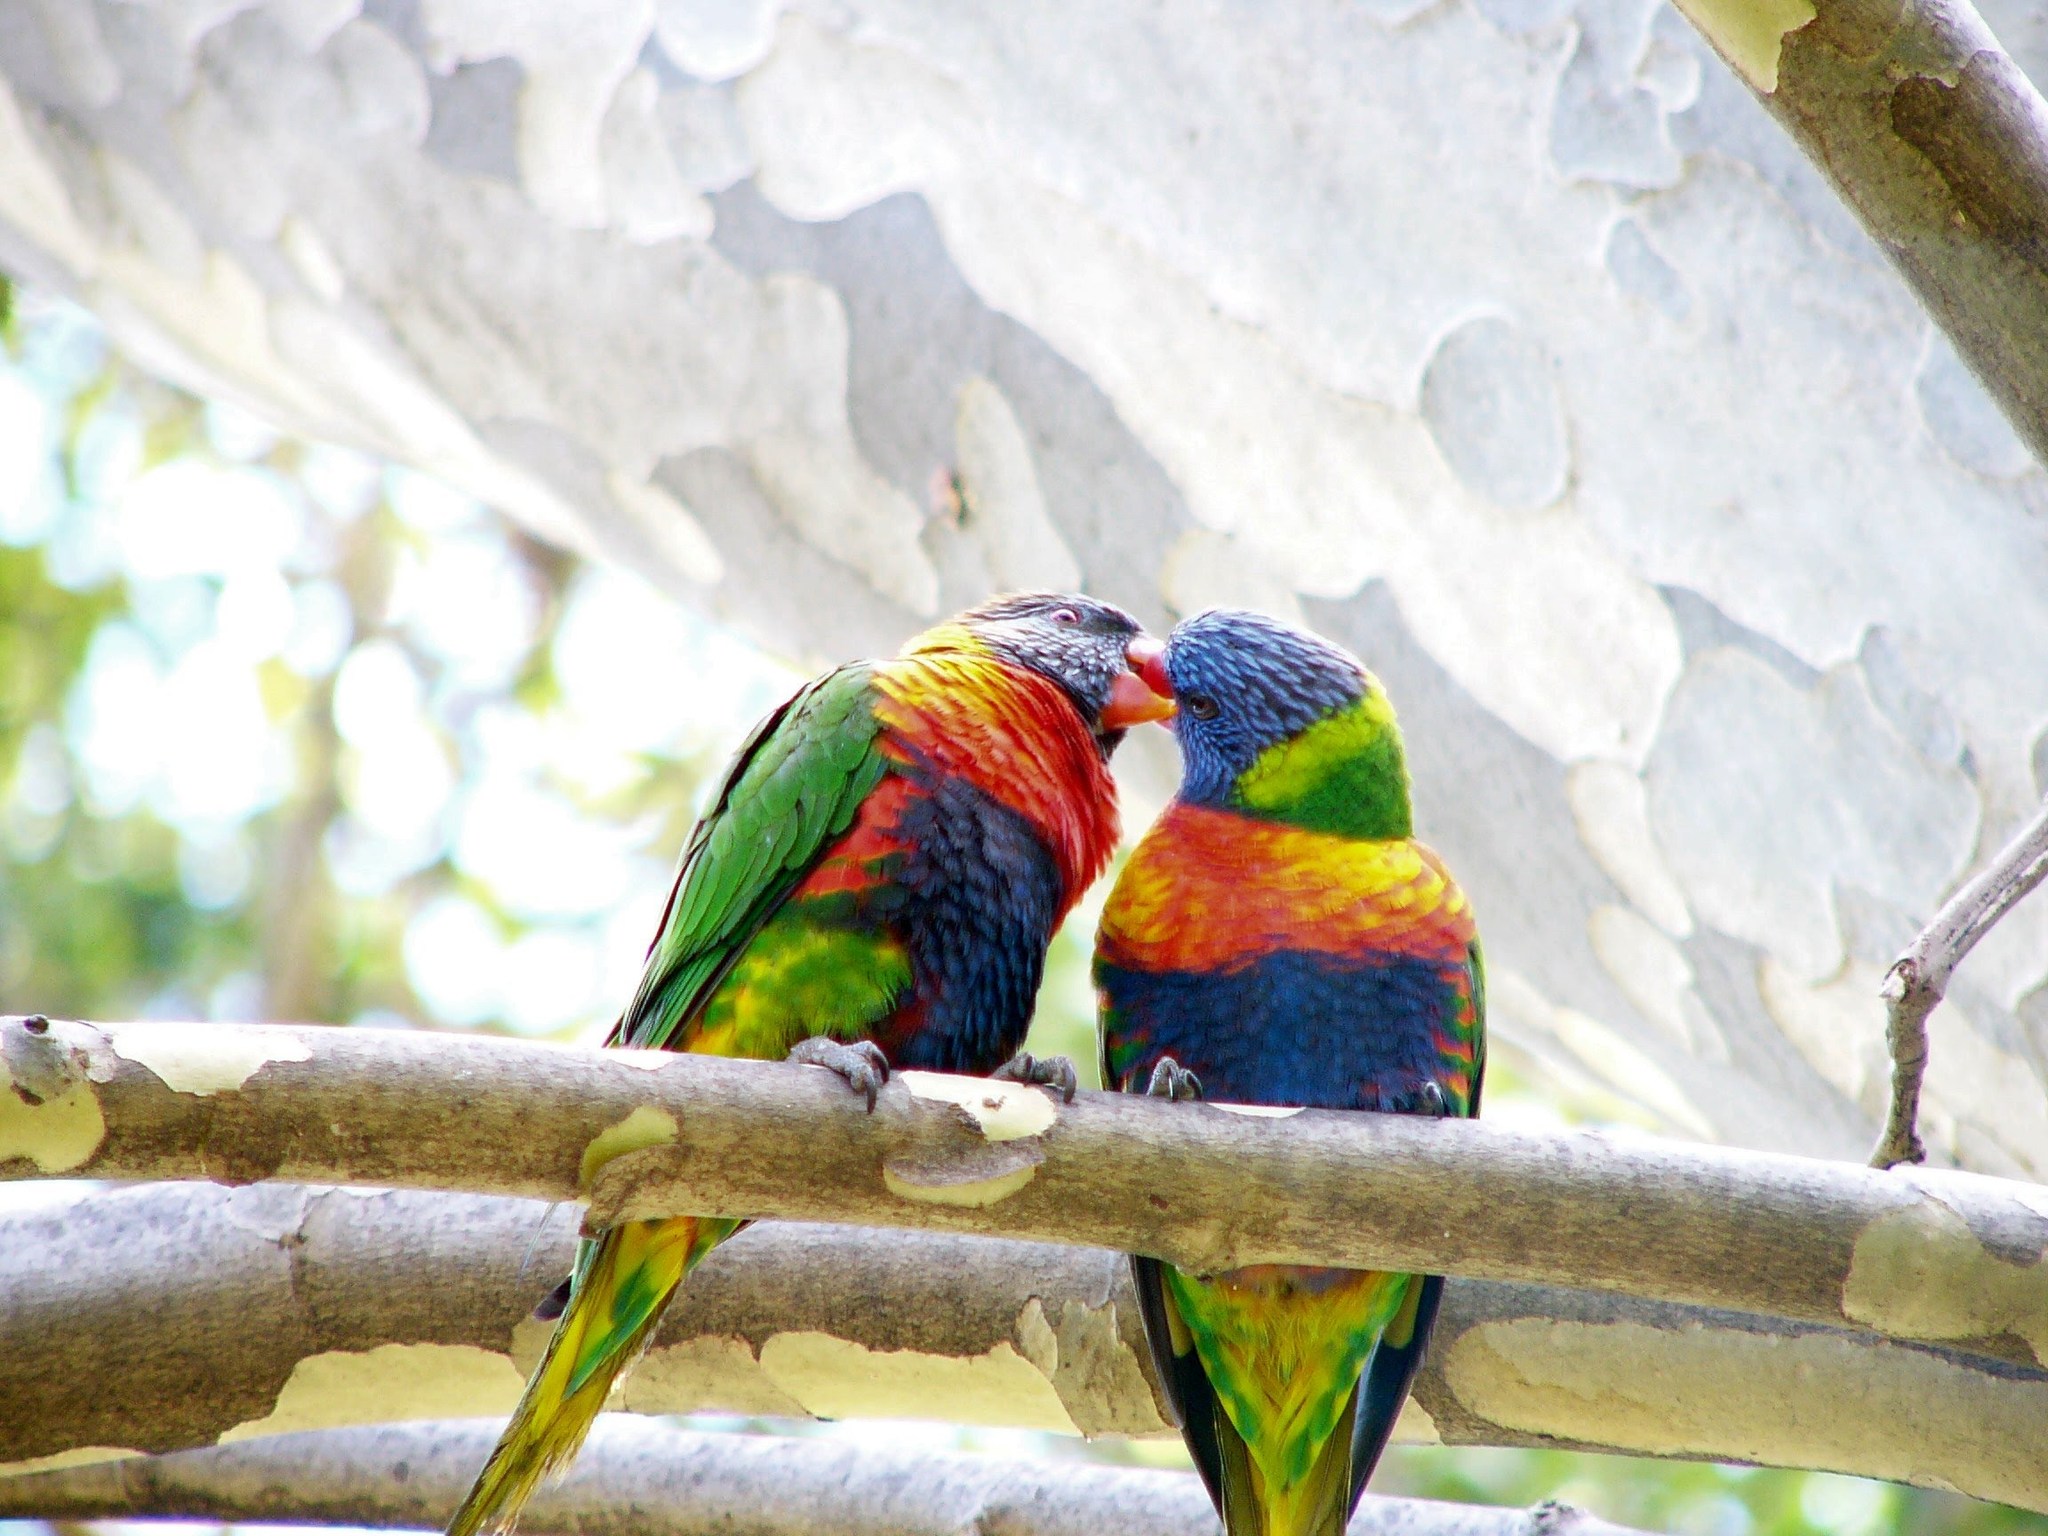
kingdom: Animalia
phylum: Chordata
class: Aves
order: Psittaciformes
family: Psittacidae
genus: Trichoglossus
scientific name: Trichoglossus haematodus
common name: Coconut lorikeet
